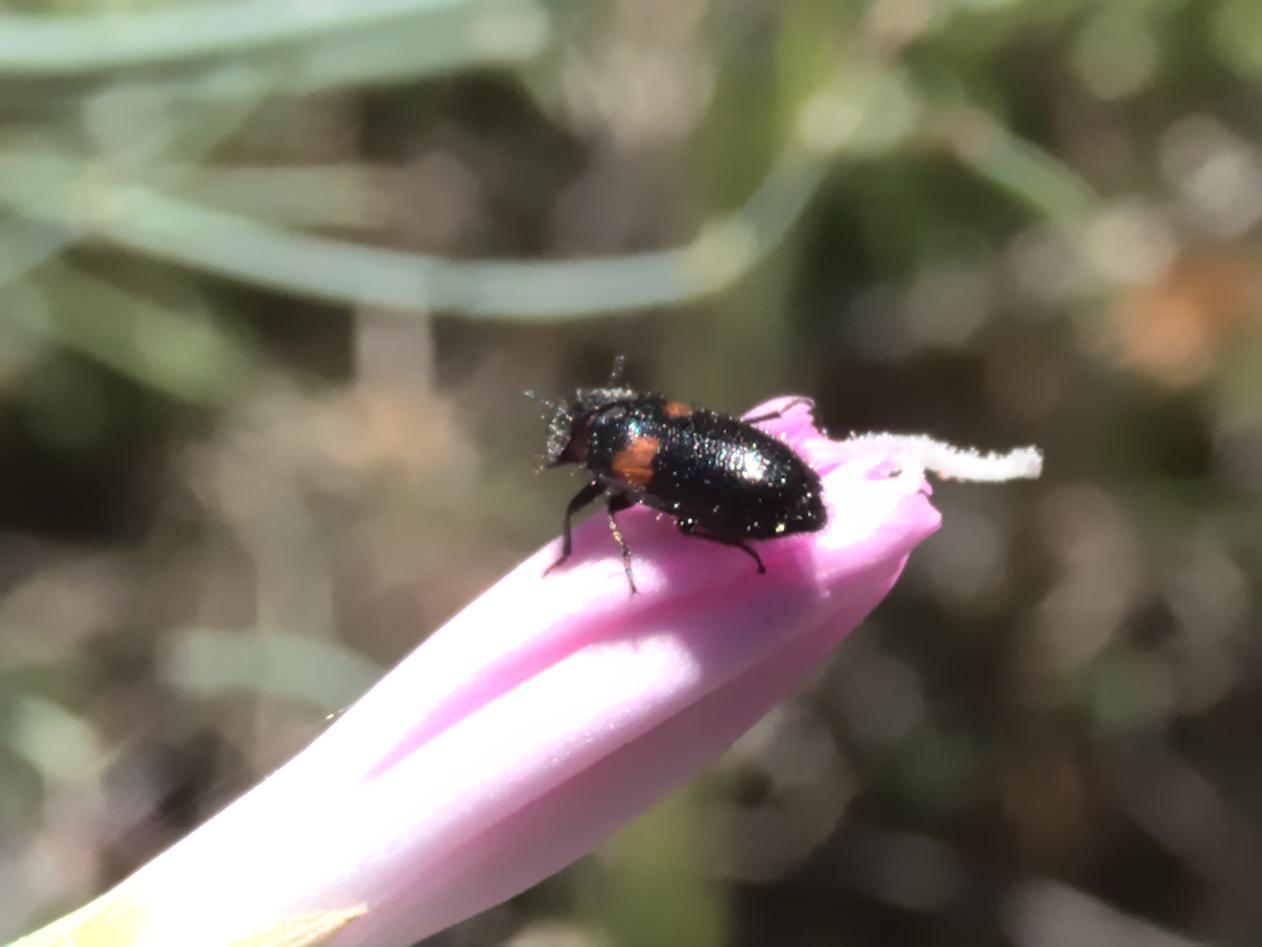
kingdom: Animalia
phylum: Arthropoda
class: Insecta
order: Coleoptera
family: Melyridae
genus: Divales
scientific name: Divales bipustulatus
